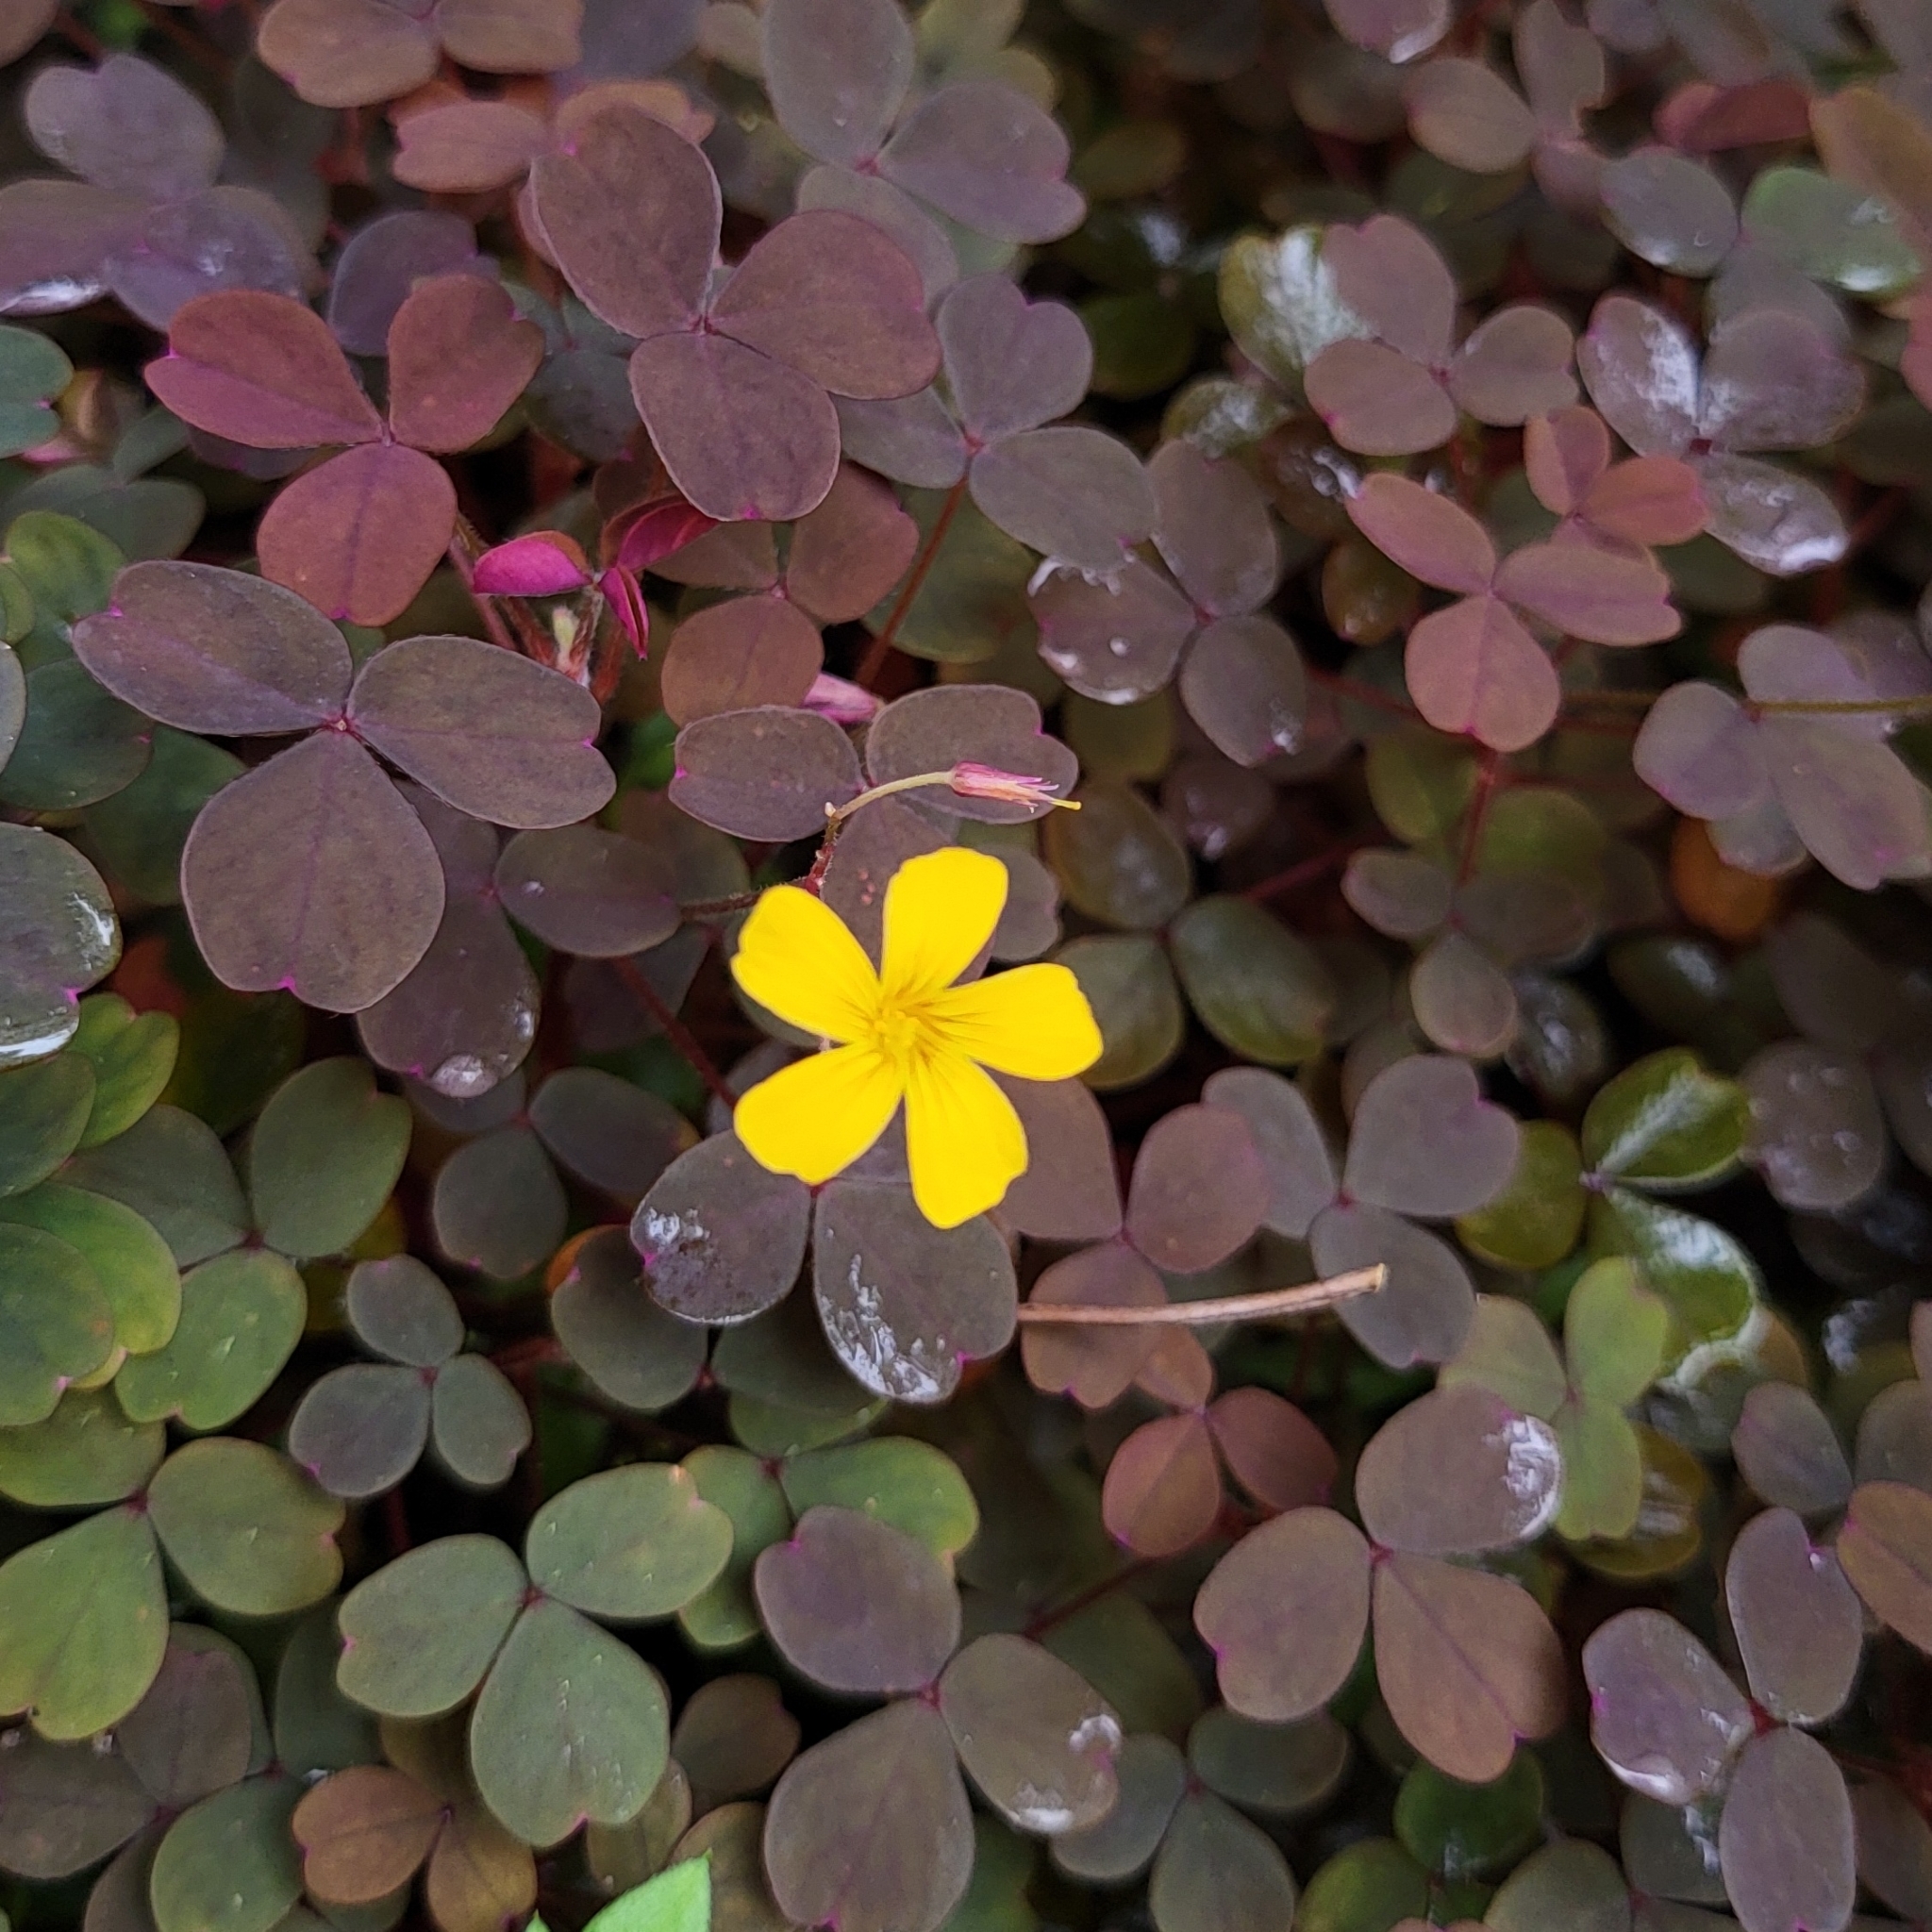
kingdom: Plantae
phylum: Tracheophyta
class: Magnoliopsida
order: Oxalidales
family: Oxalidaceae
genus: Oxalis
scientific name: Oxalis corniculata
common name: Procumbent yellow-sorrel
